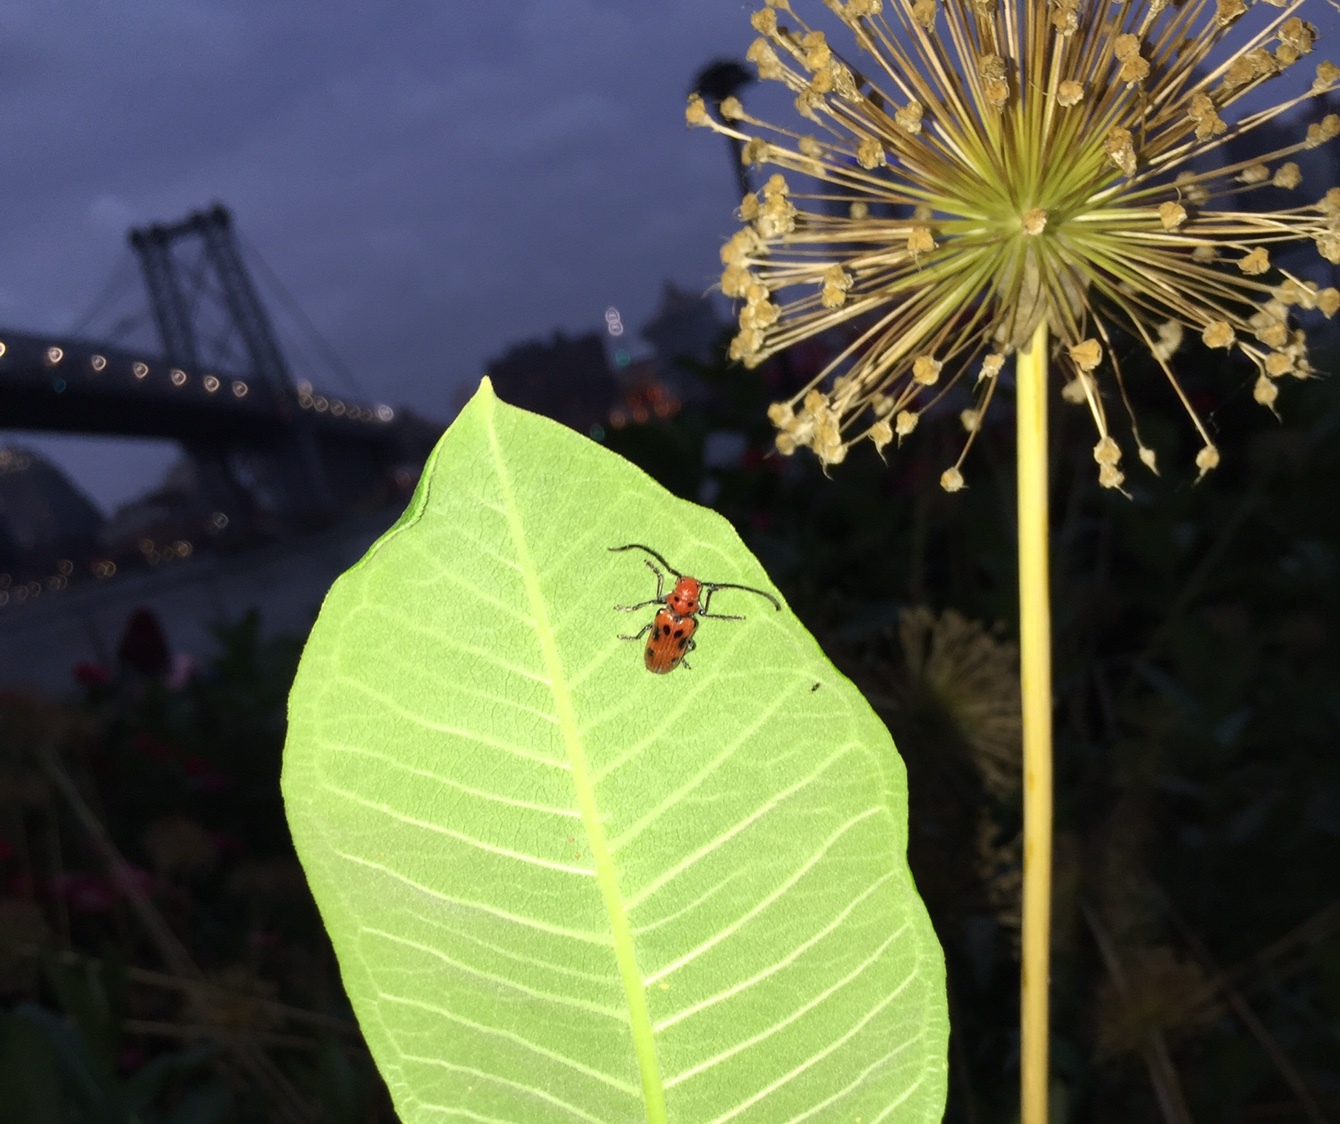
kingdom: Animalia
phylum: Arthropoda
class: Insecta
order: Coleoptera
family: Cerambycidae
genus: Tetraopes
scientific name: Tetraopes tetrophthalmus
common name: Red milkweed beetle
